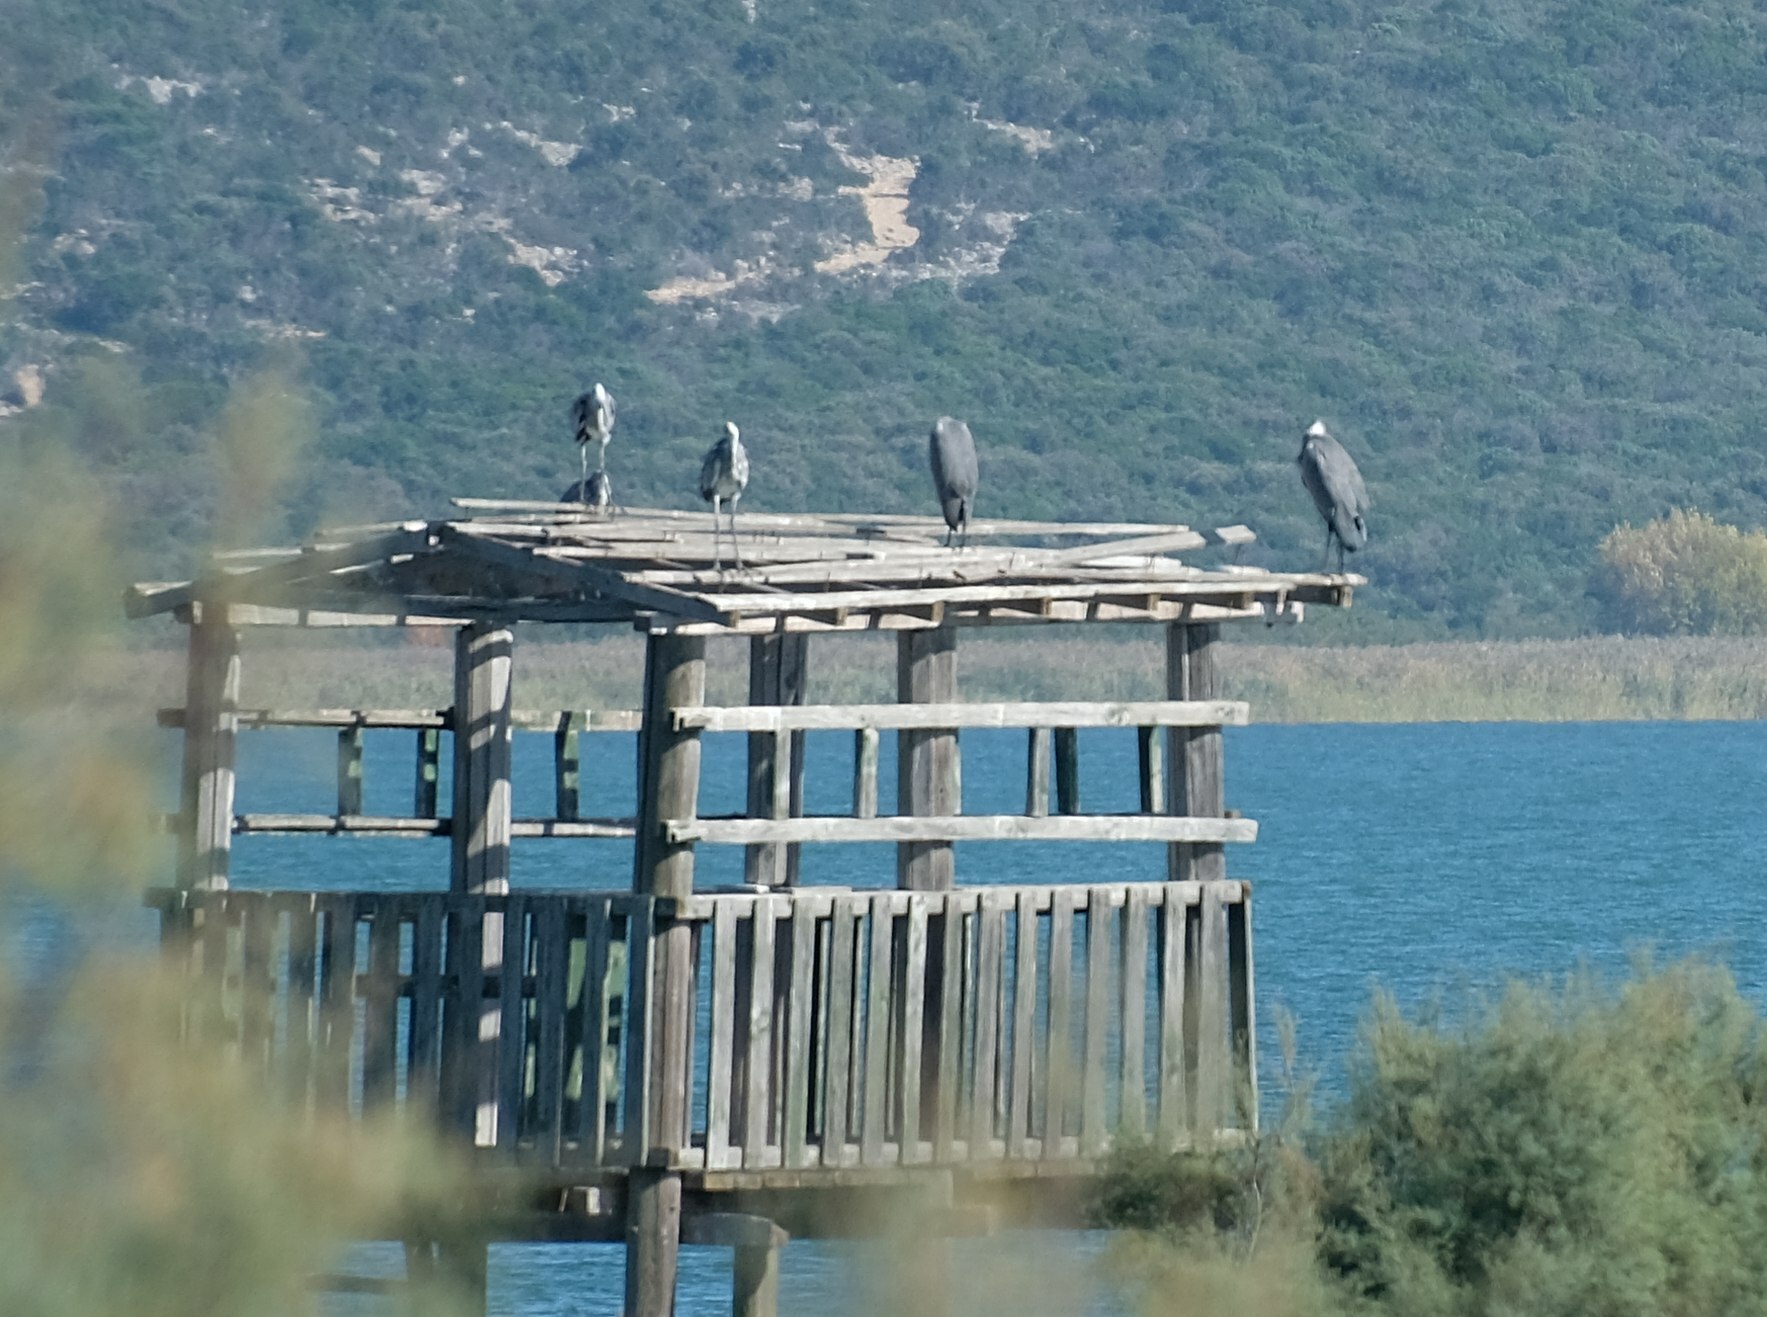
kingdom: Animalia
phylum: Chordata
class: Aves
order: Pelecaniformes
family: Ardeidae
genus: Ardea
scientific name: Ardea cinerea
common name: Grey heron
